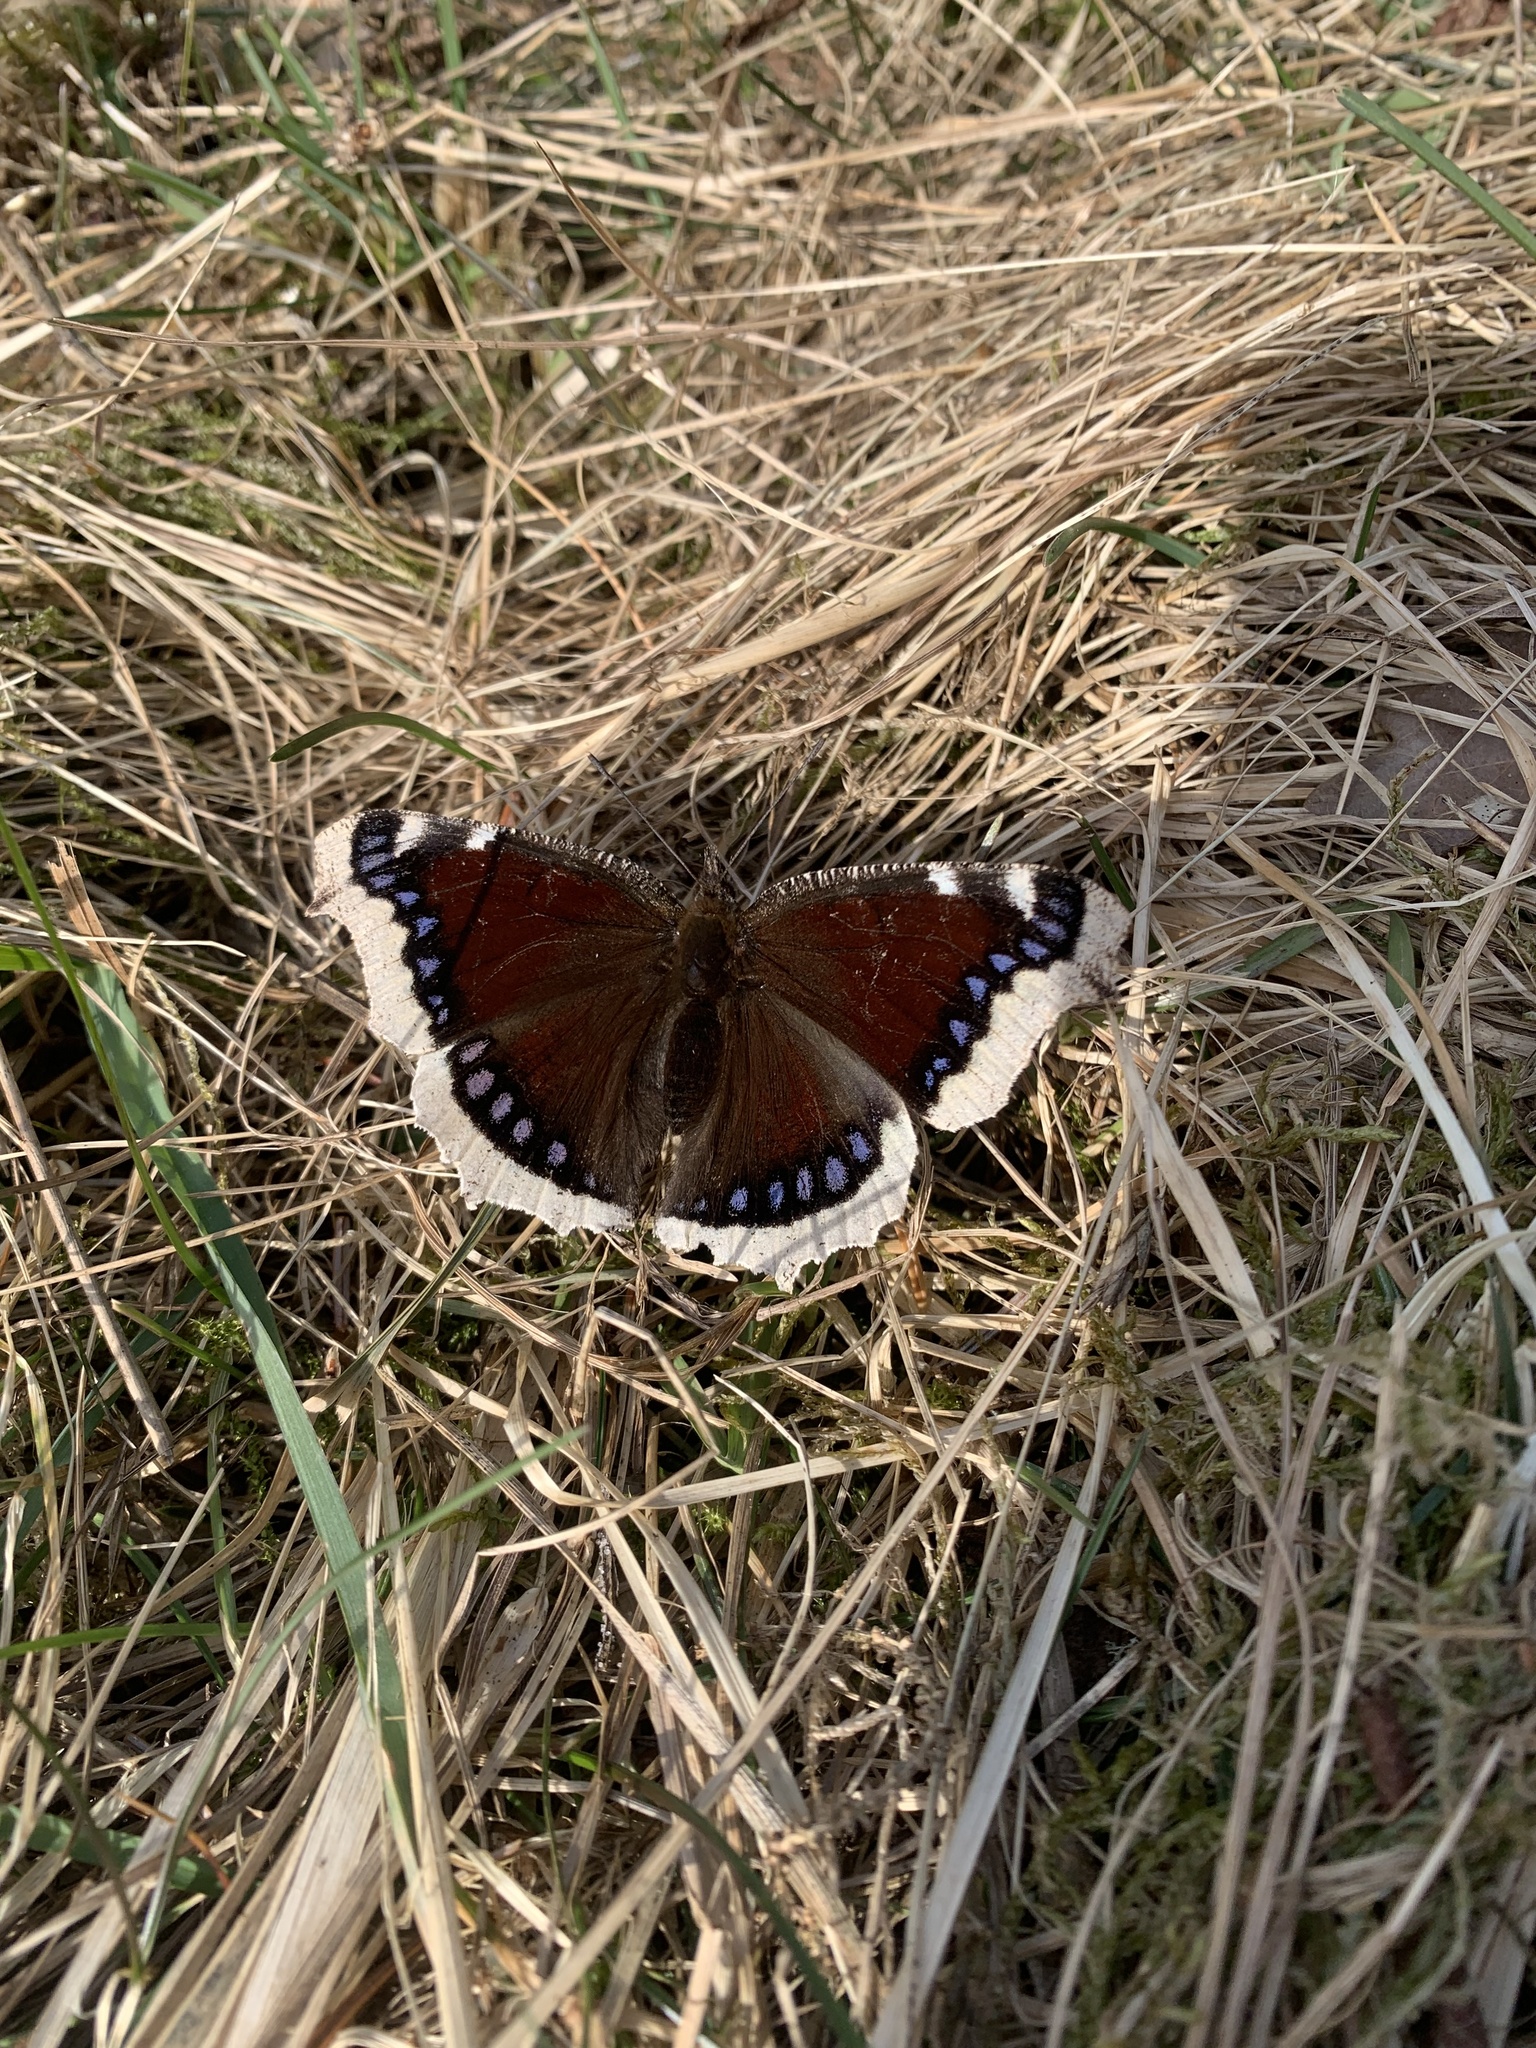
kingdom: Animalia
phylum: Arthropoda
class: Insecta
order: Lepidoptera
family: Nymphalidae
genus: Nymphalis
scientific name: Nymphalis antiopa
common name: Camberwell beauty
